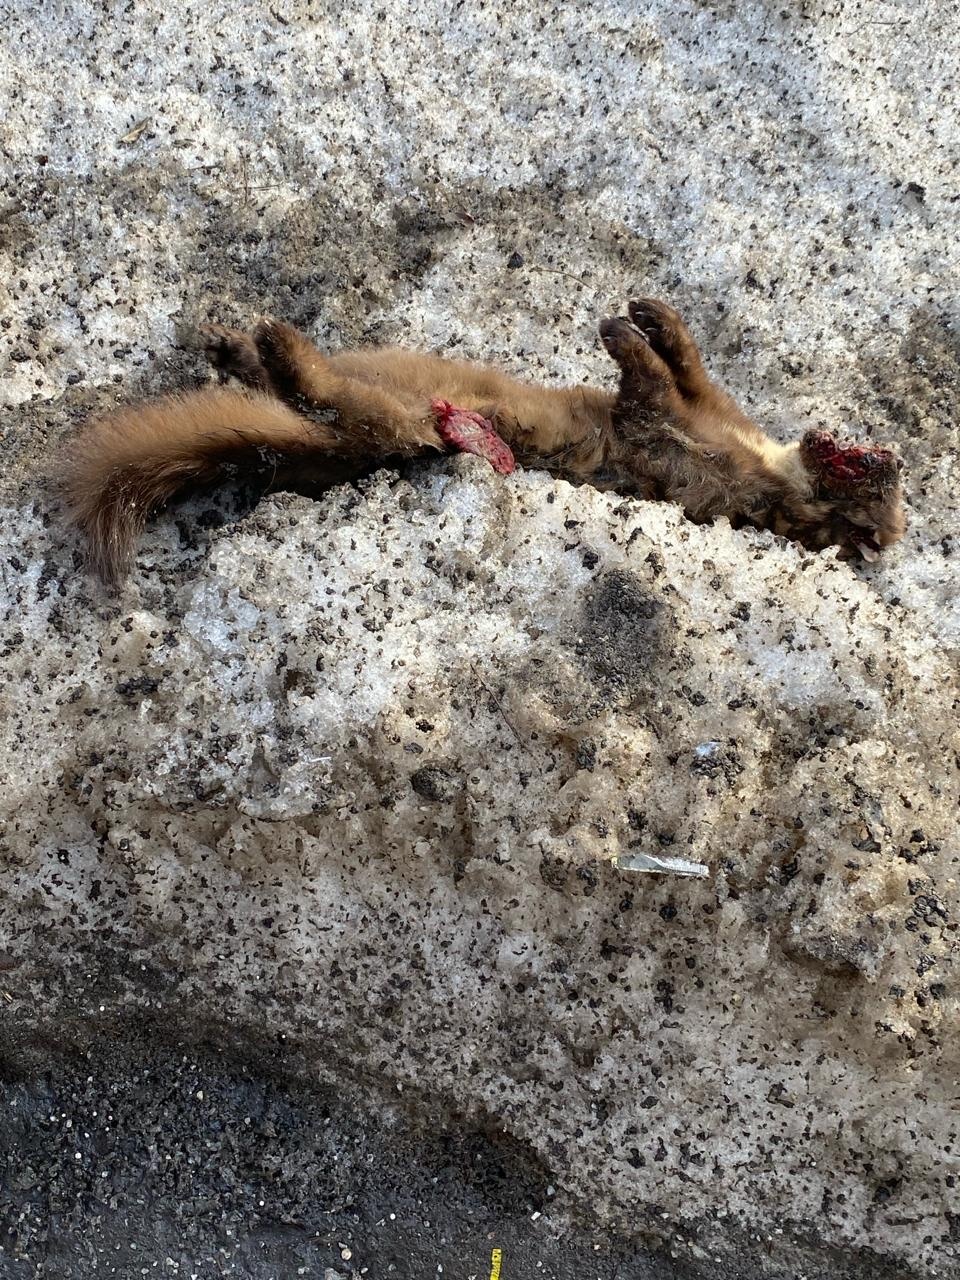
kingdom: Animalia
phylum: Chordata
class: Mammalia
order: Carnivora
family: Mustelidae
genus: Martes
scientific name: Martes martes
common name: European pine marten
